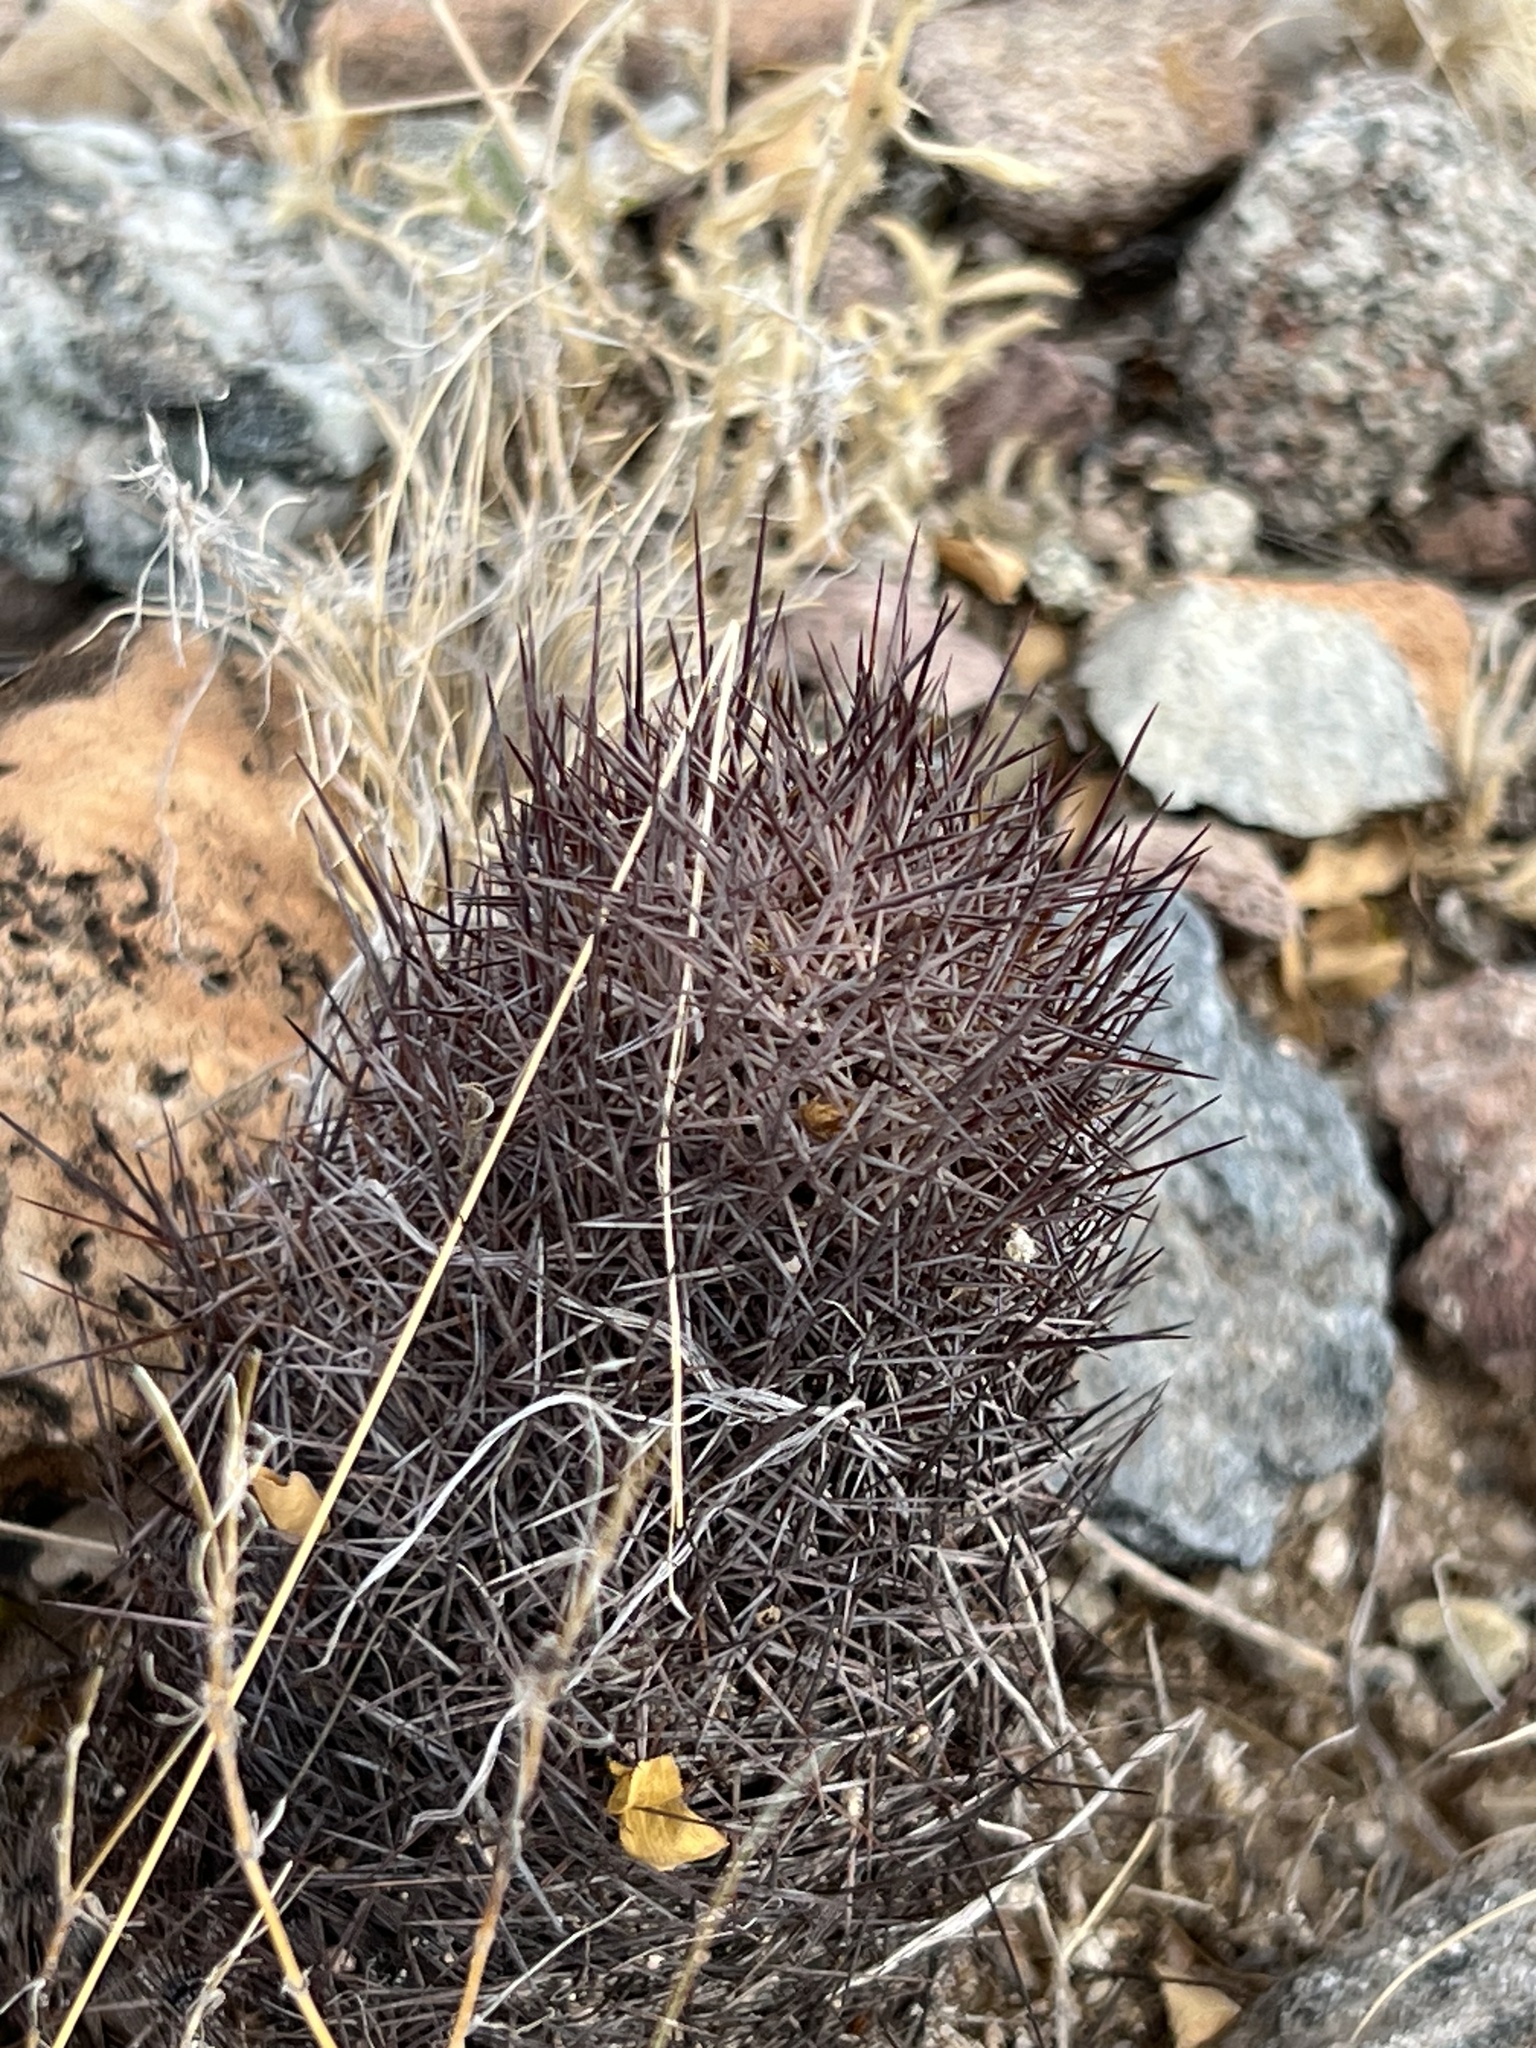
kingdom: Plantae
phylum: Tracheophyta
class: Magnoliopsida
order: Caryophyllales
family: Cactaceae
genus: Sclerocactus
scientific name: Sclerocactus johnsonii
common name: Eight-spine fishhook cactus
